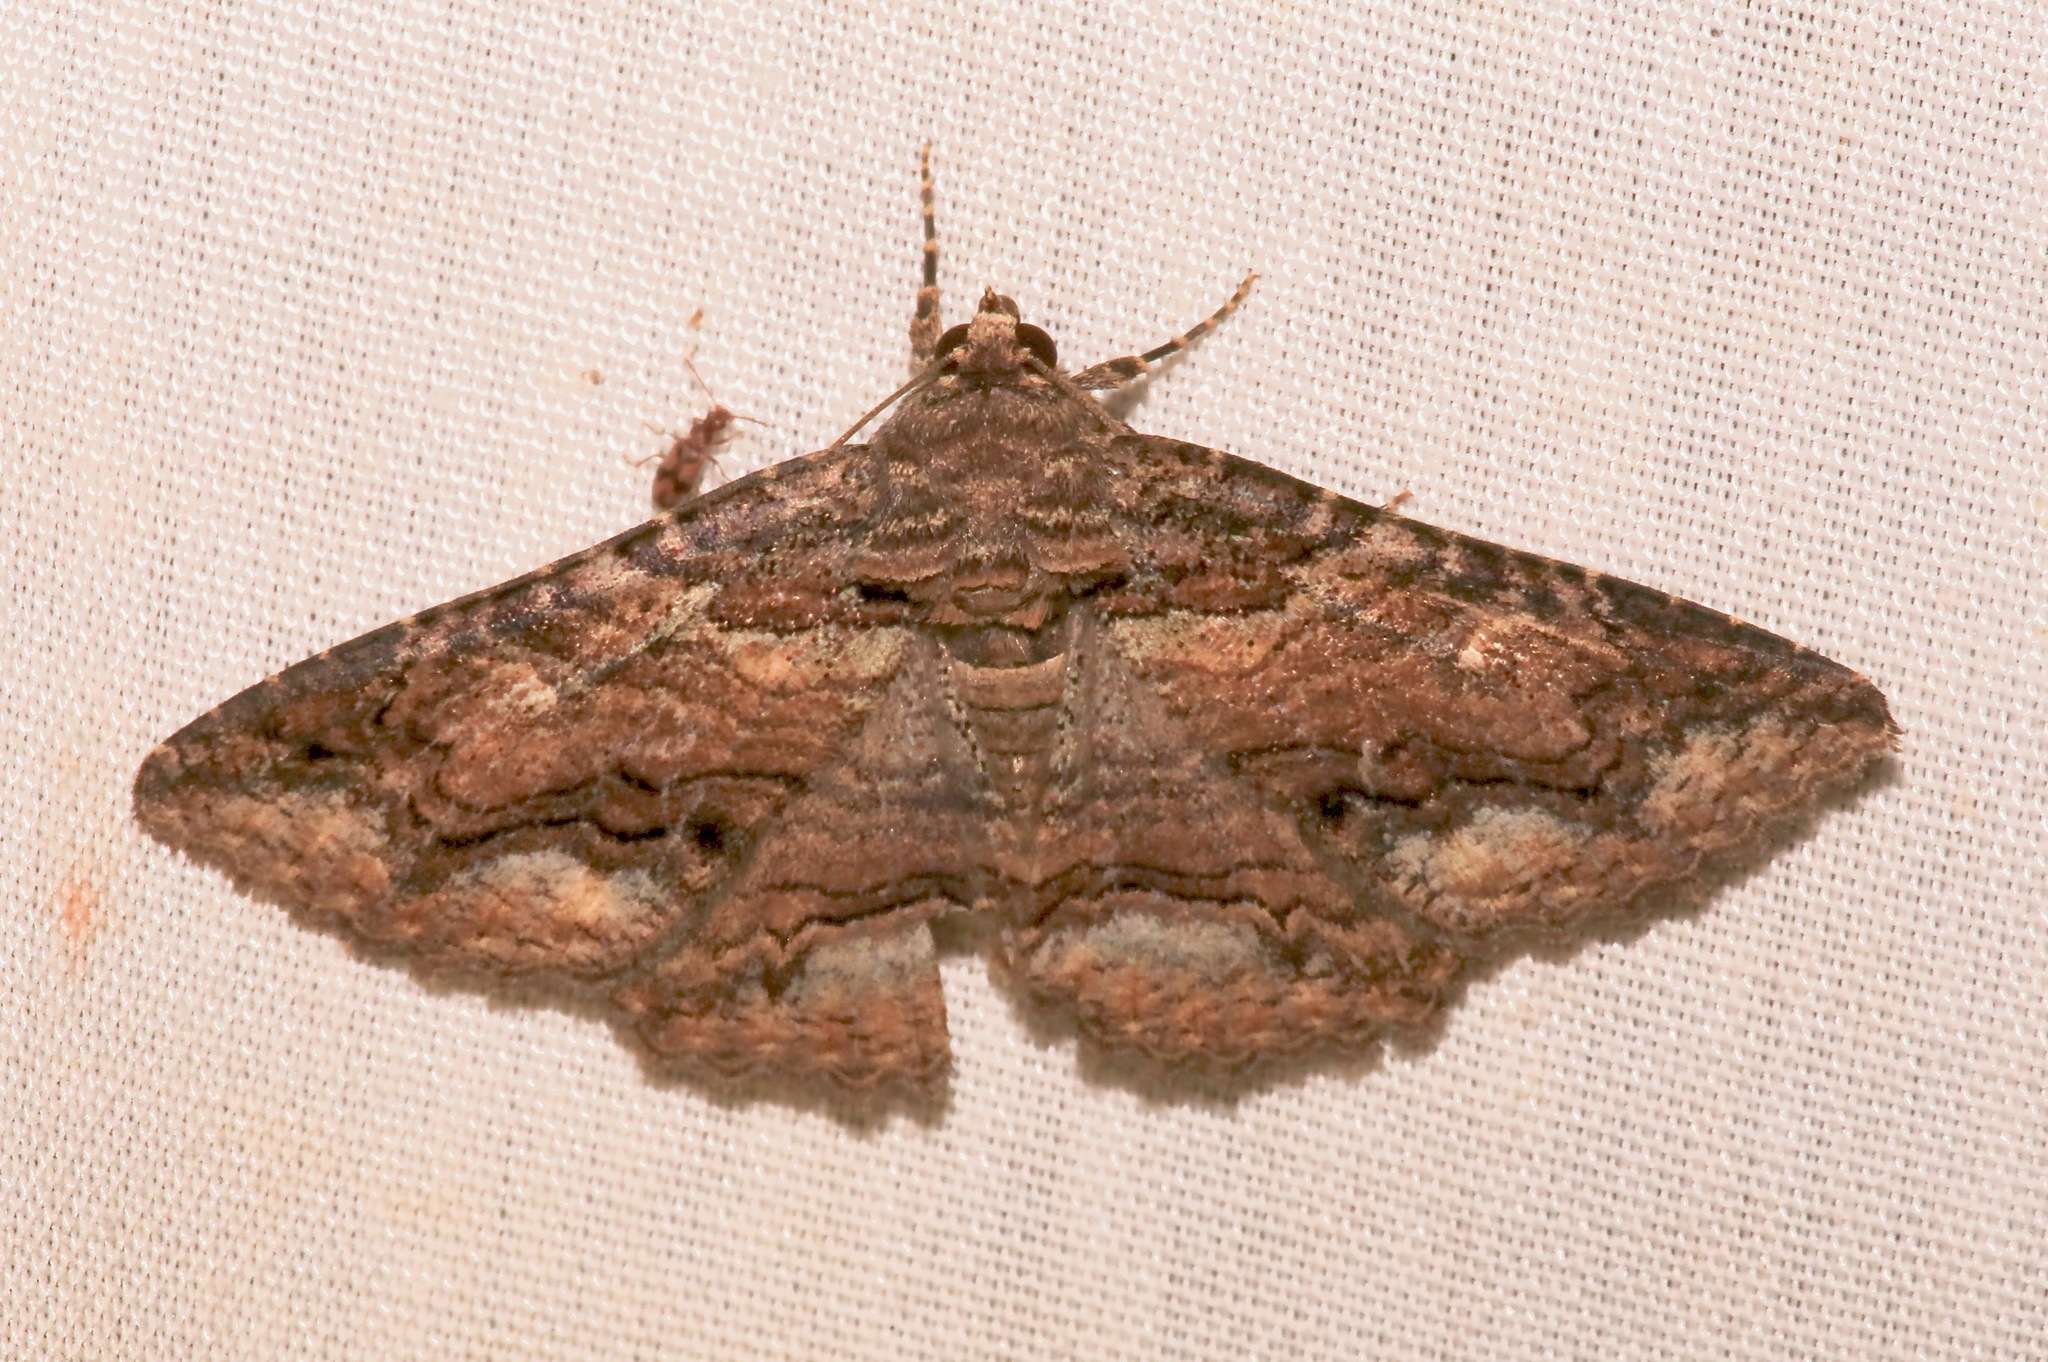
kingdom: Animalia
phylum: Arthropoda
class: Insecta
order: Lepidoptera
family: Erebidae
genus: Zale
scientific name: Zale galbanata
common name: Maple zale
